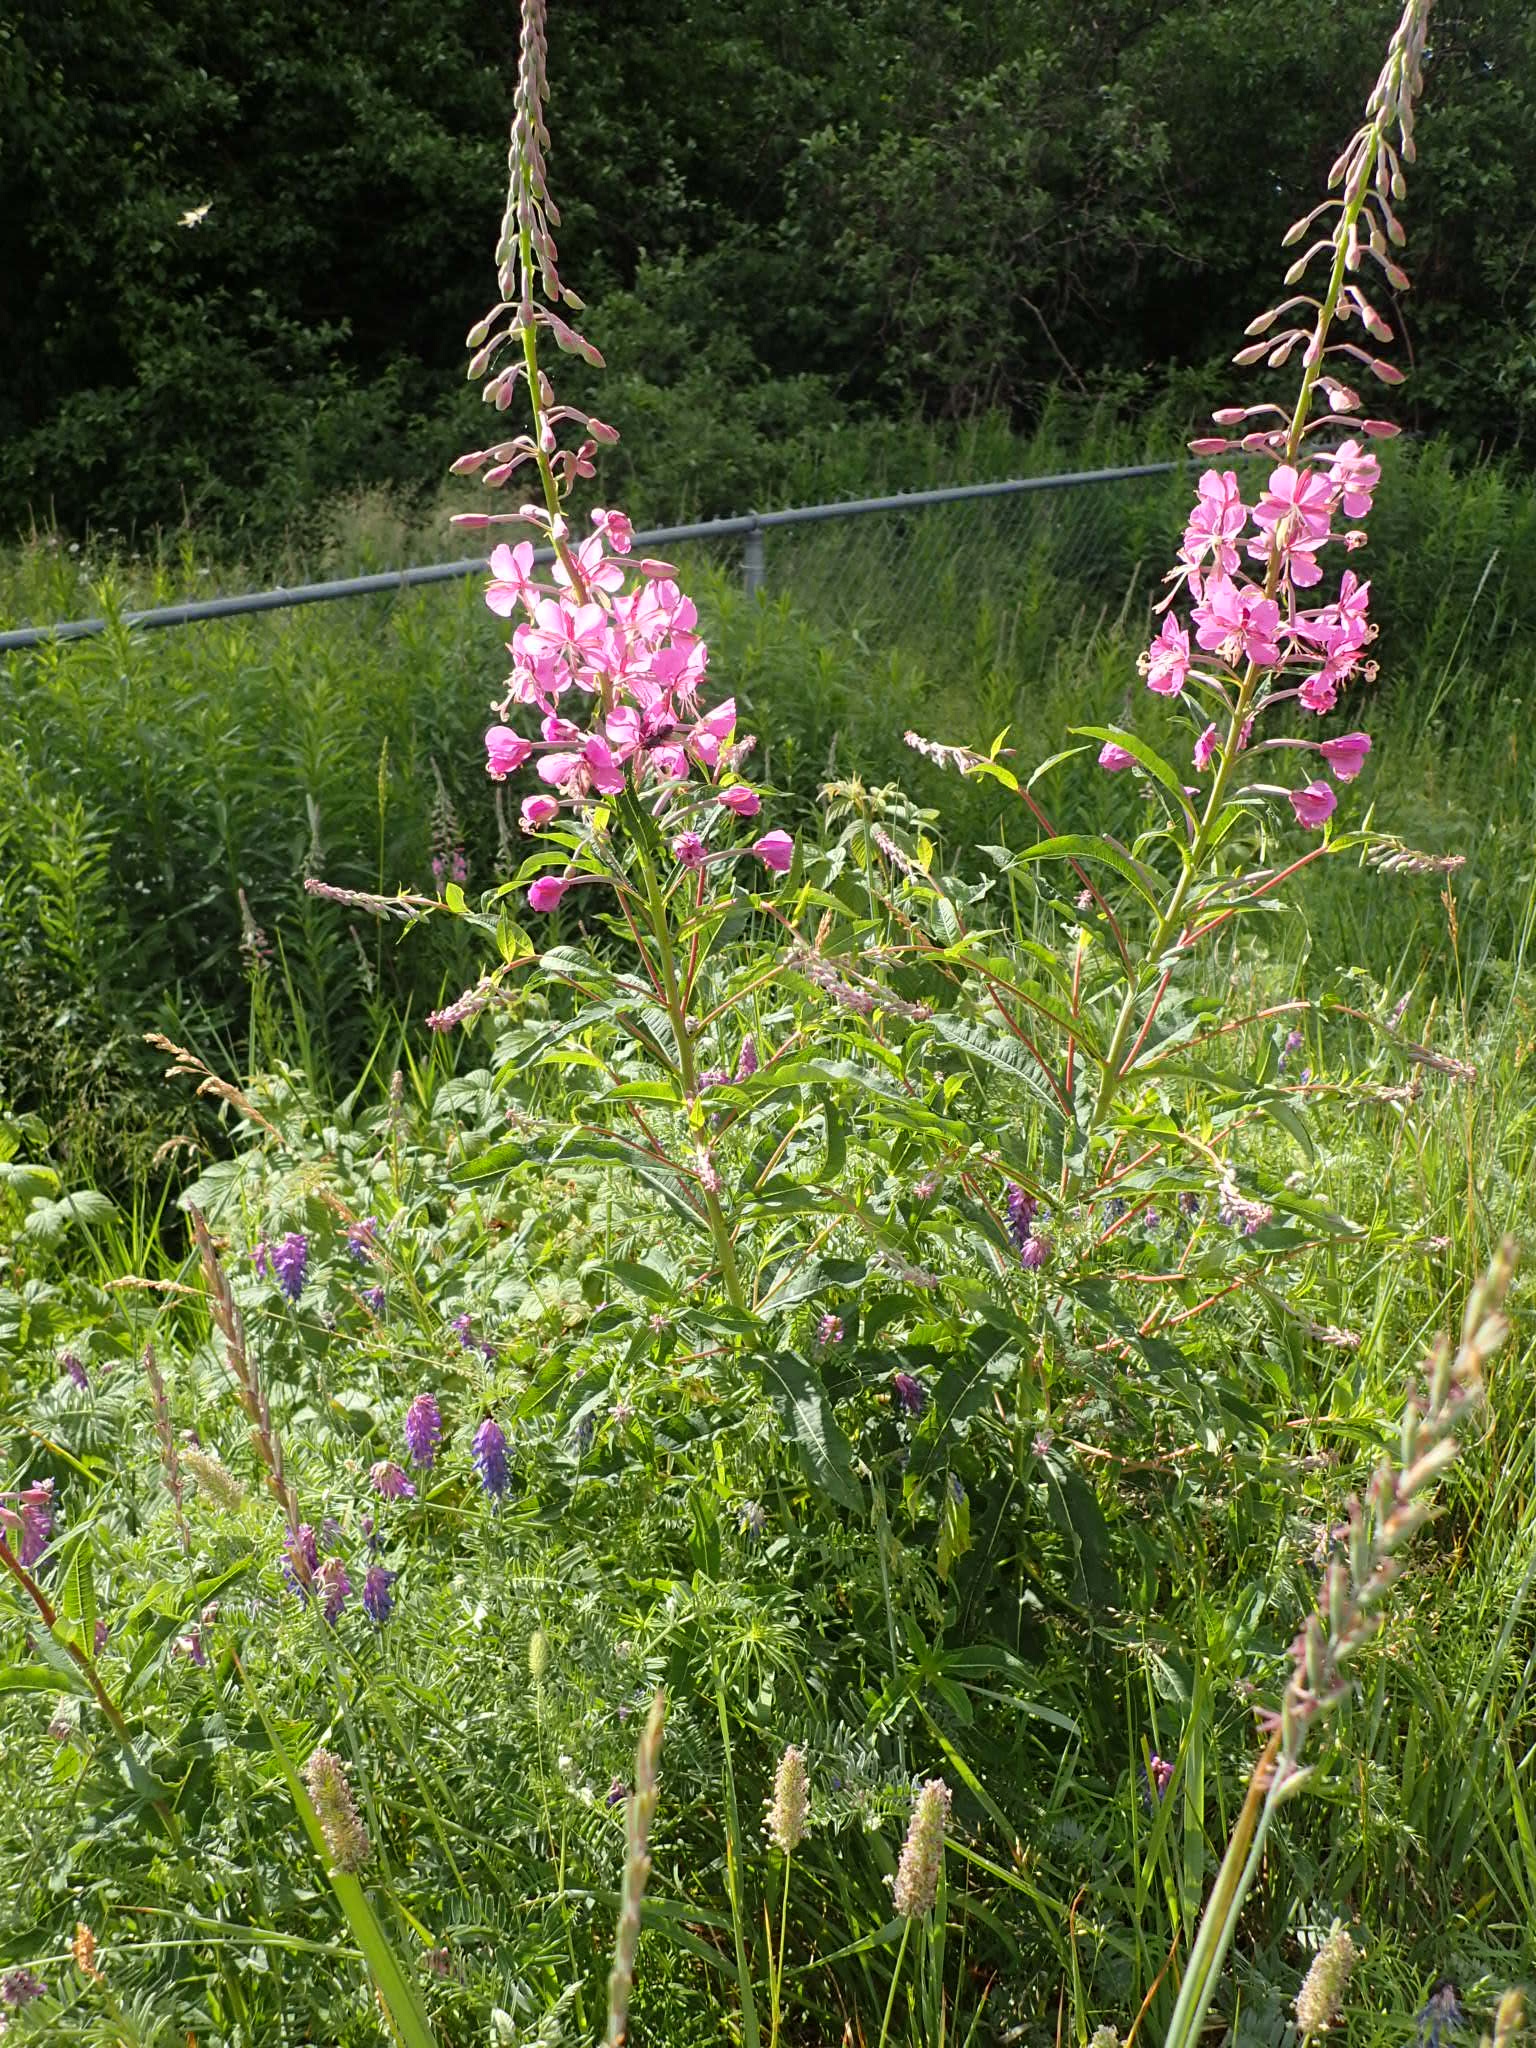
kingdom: Plantae
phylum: Tracheophyta
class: Magnoliopsida
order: Myrtales
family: Onagraceae
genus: Chamaenerion
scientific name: Chamaenerion angustifolium
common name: Fireweed
